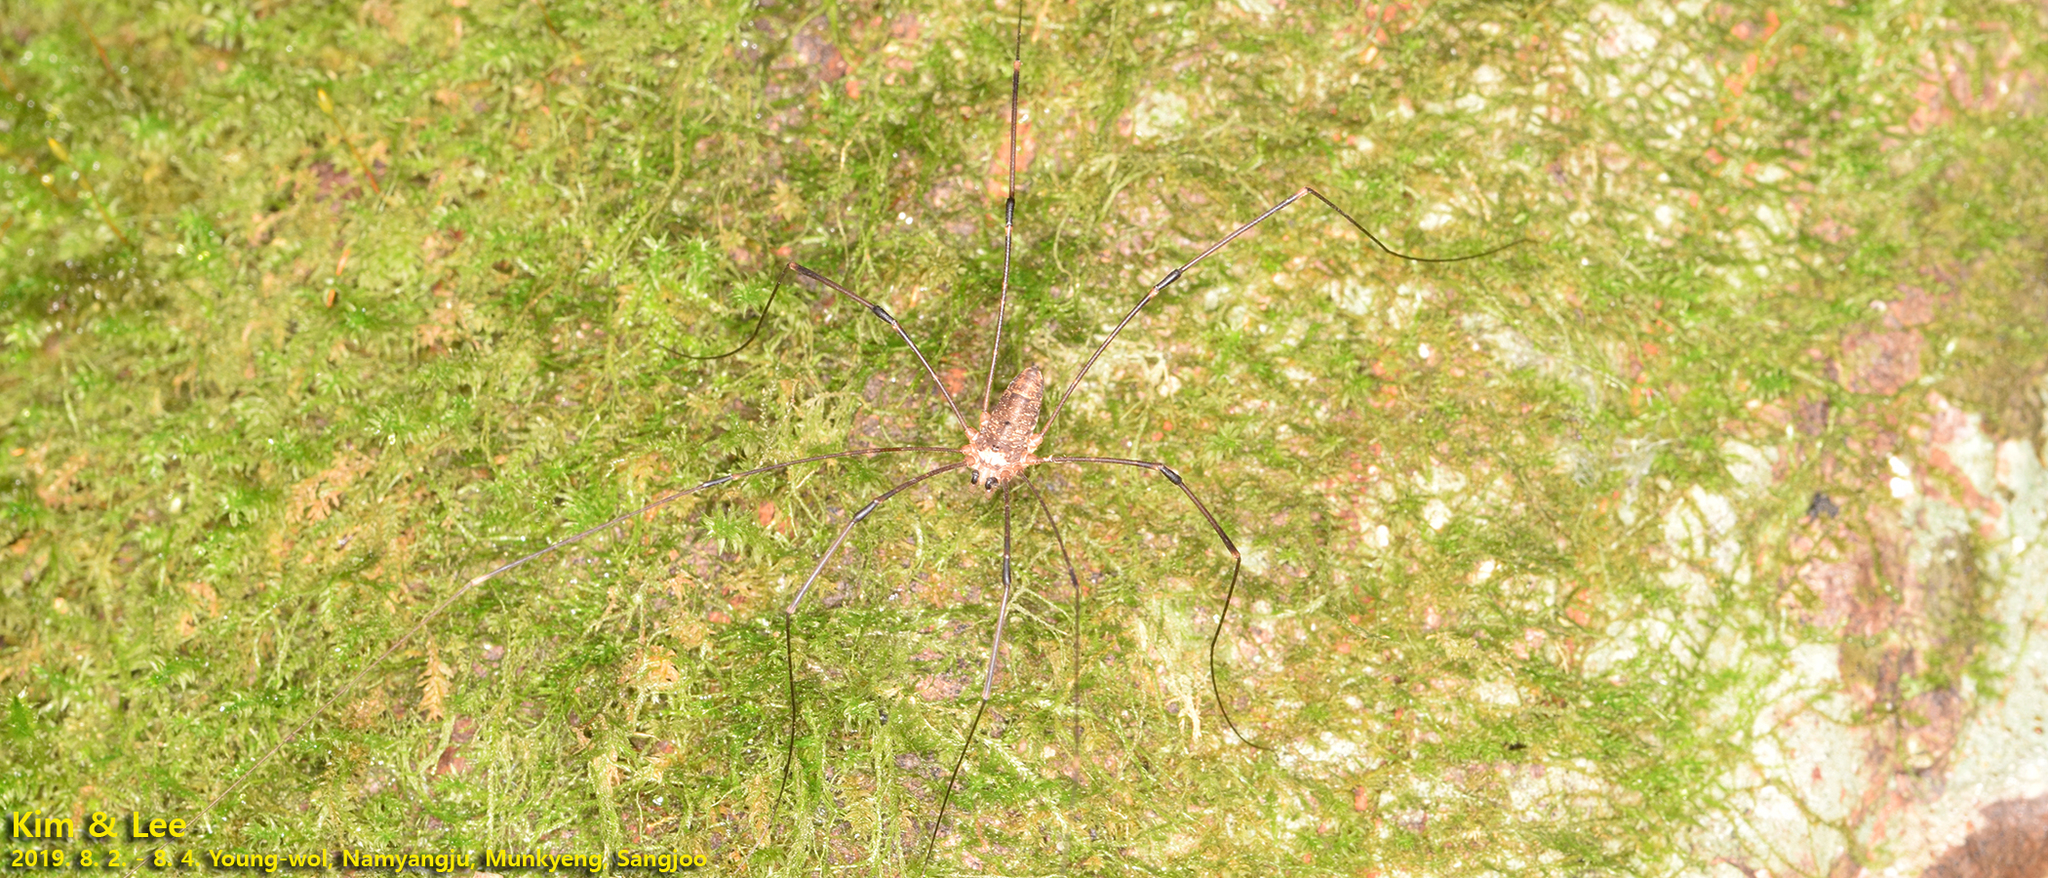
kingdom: Animalia
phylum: Arthropoda
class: Arachnida
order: Opiliones
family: Sclerosomatidae
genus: Thunbergia
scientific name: Thunbergia grandis
